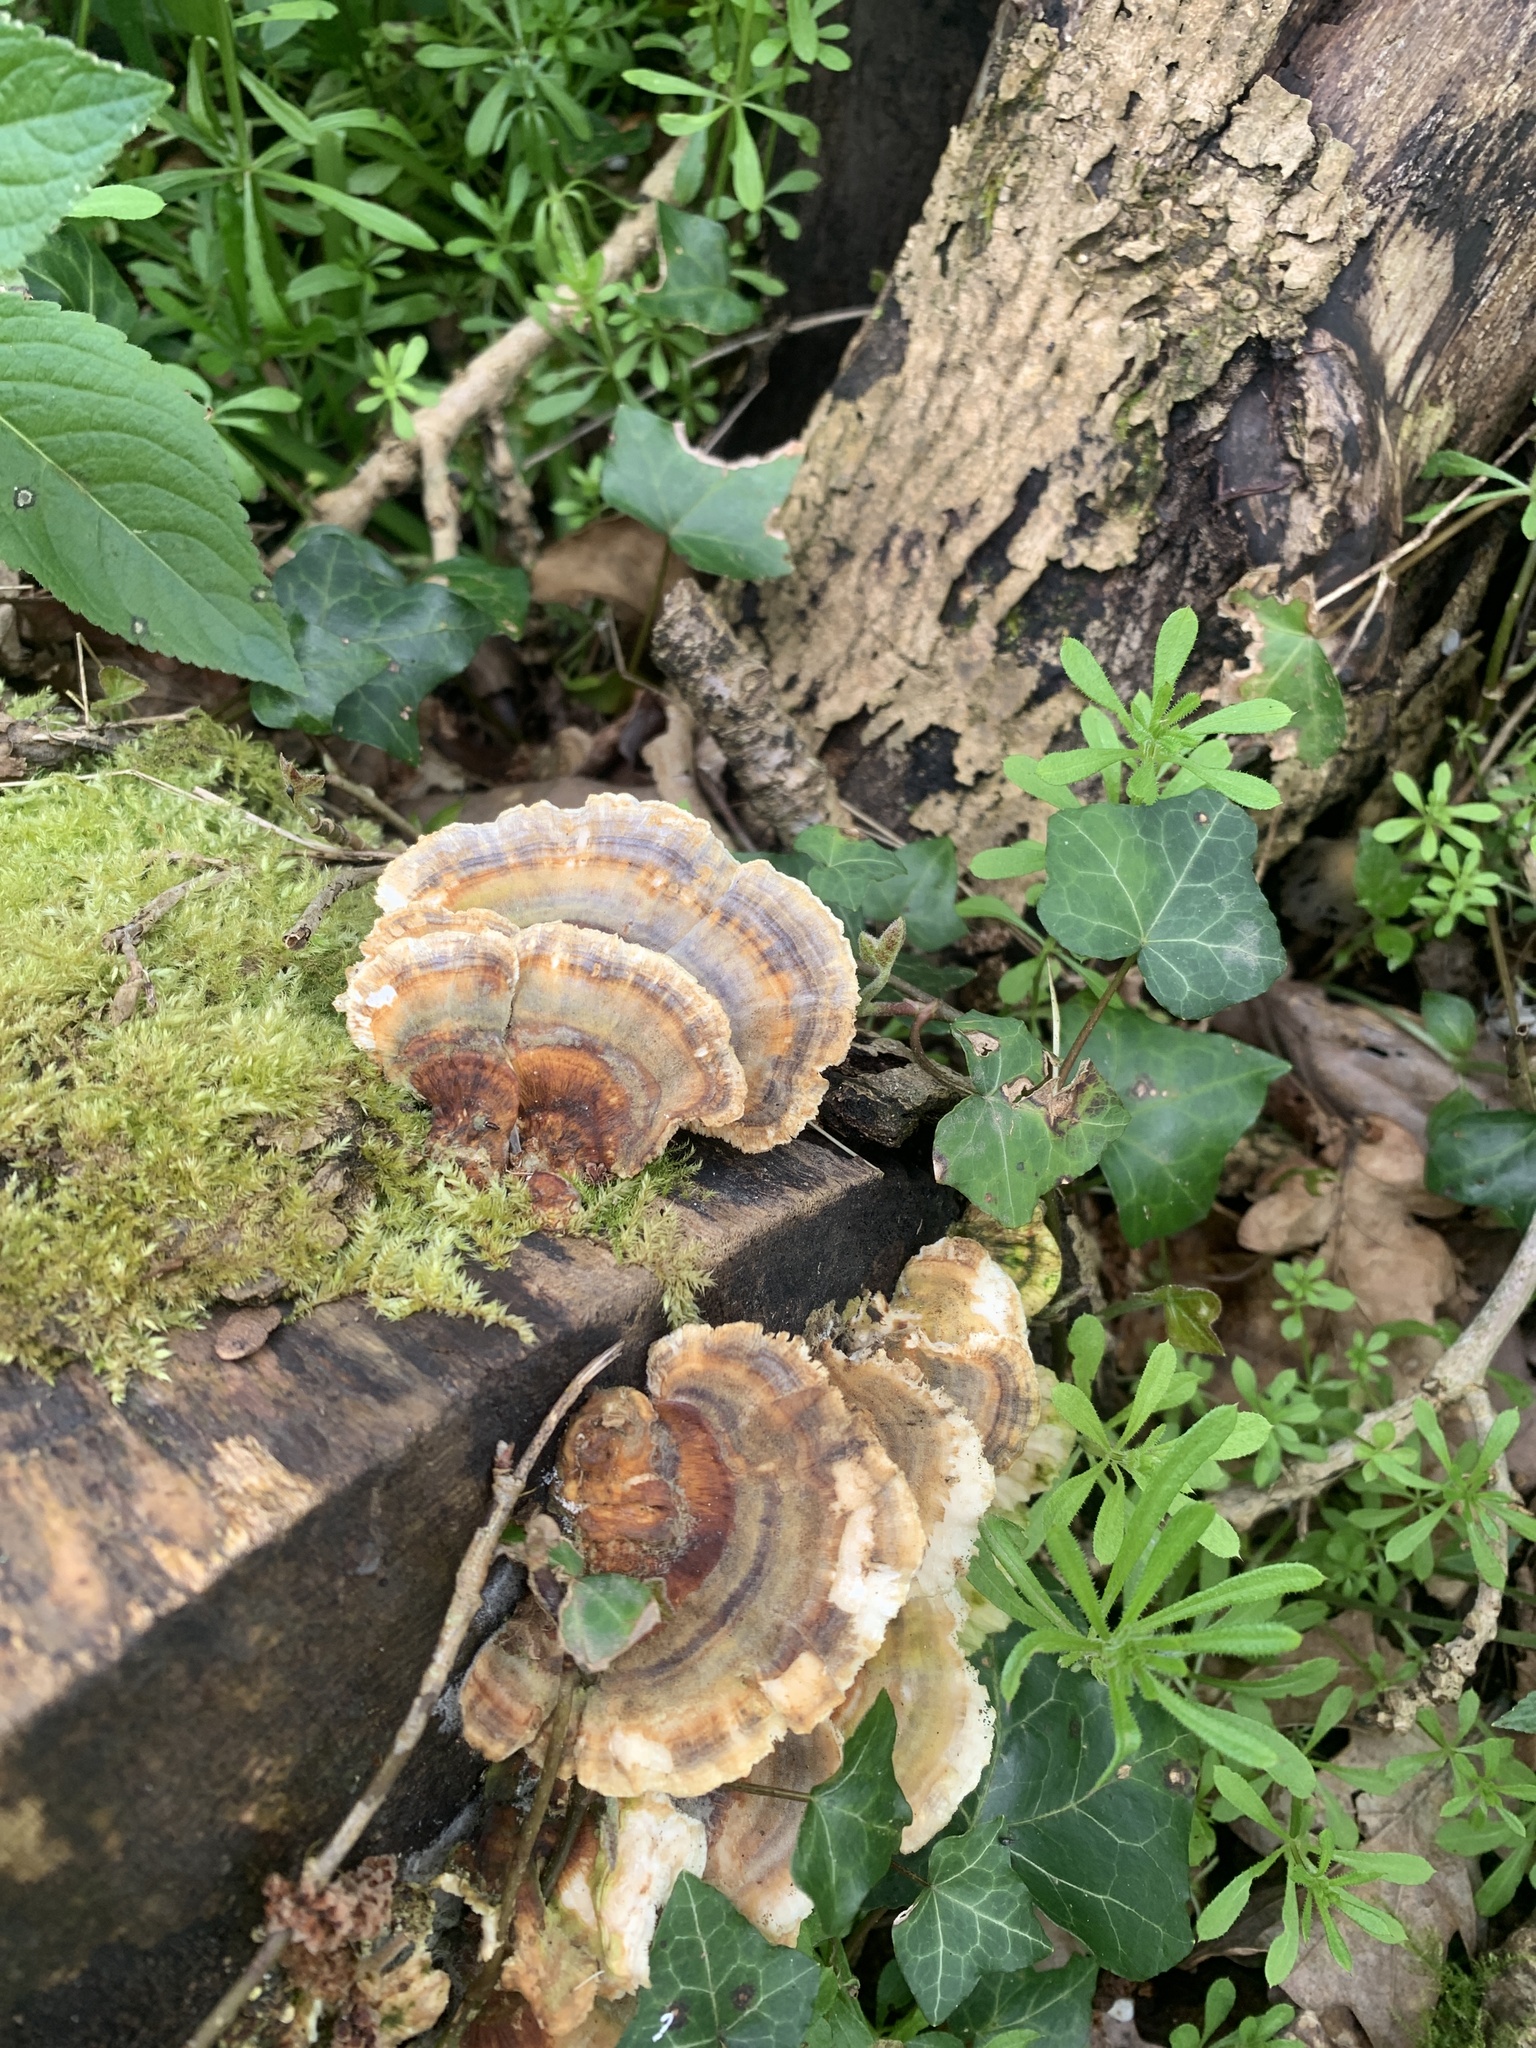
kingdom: Fungi
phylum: Basidiomycota
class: Agaricomycetes
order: Polyporales
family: Polyporaceae
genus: Trametes
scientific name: Trametes versicolor
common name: Turkeytail
